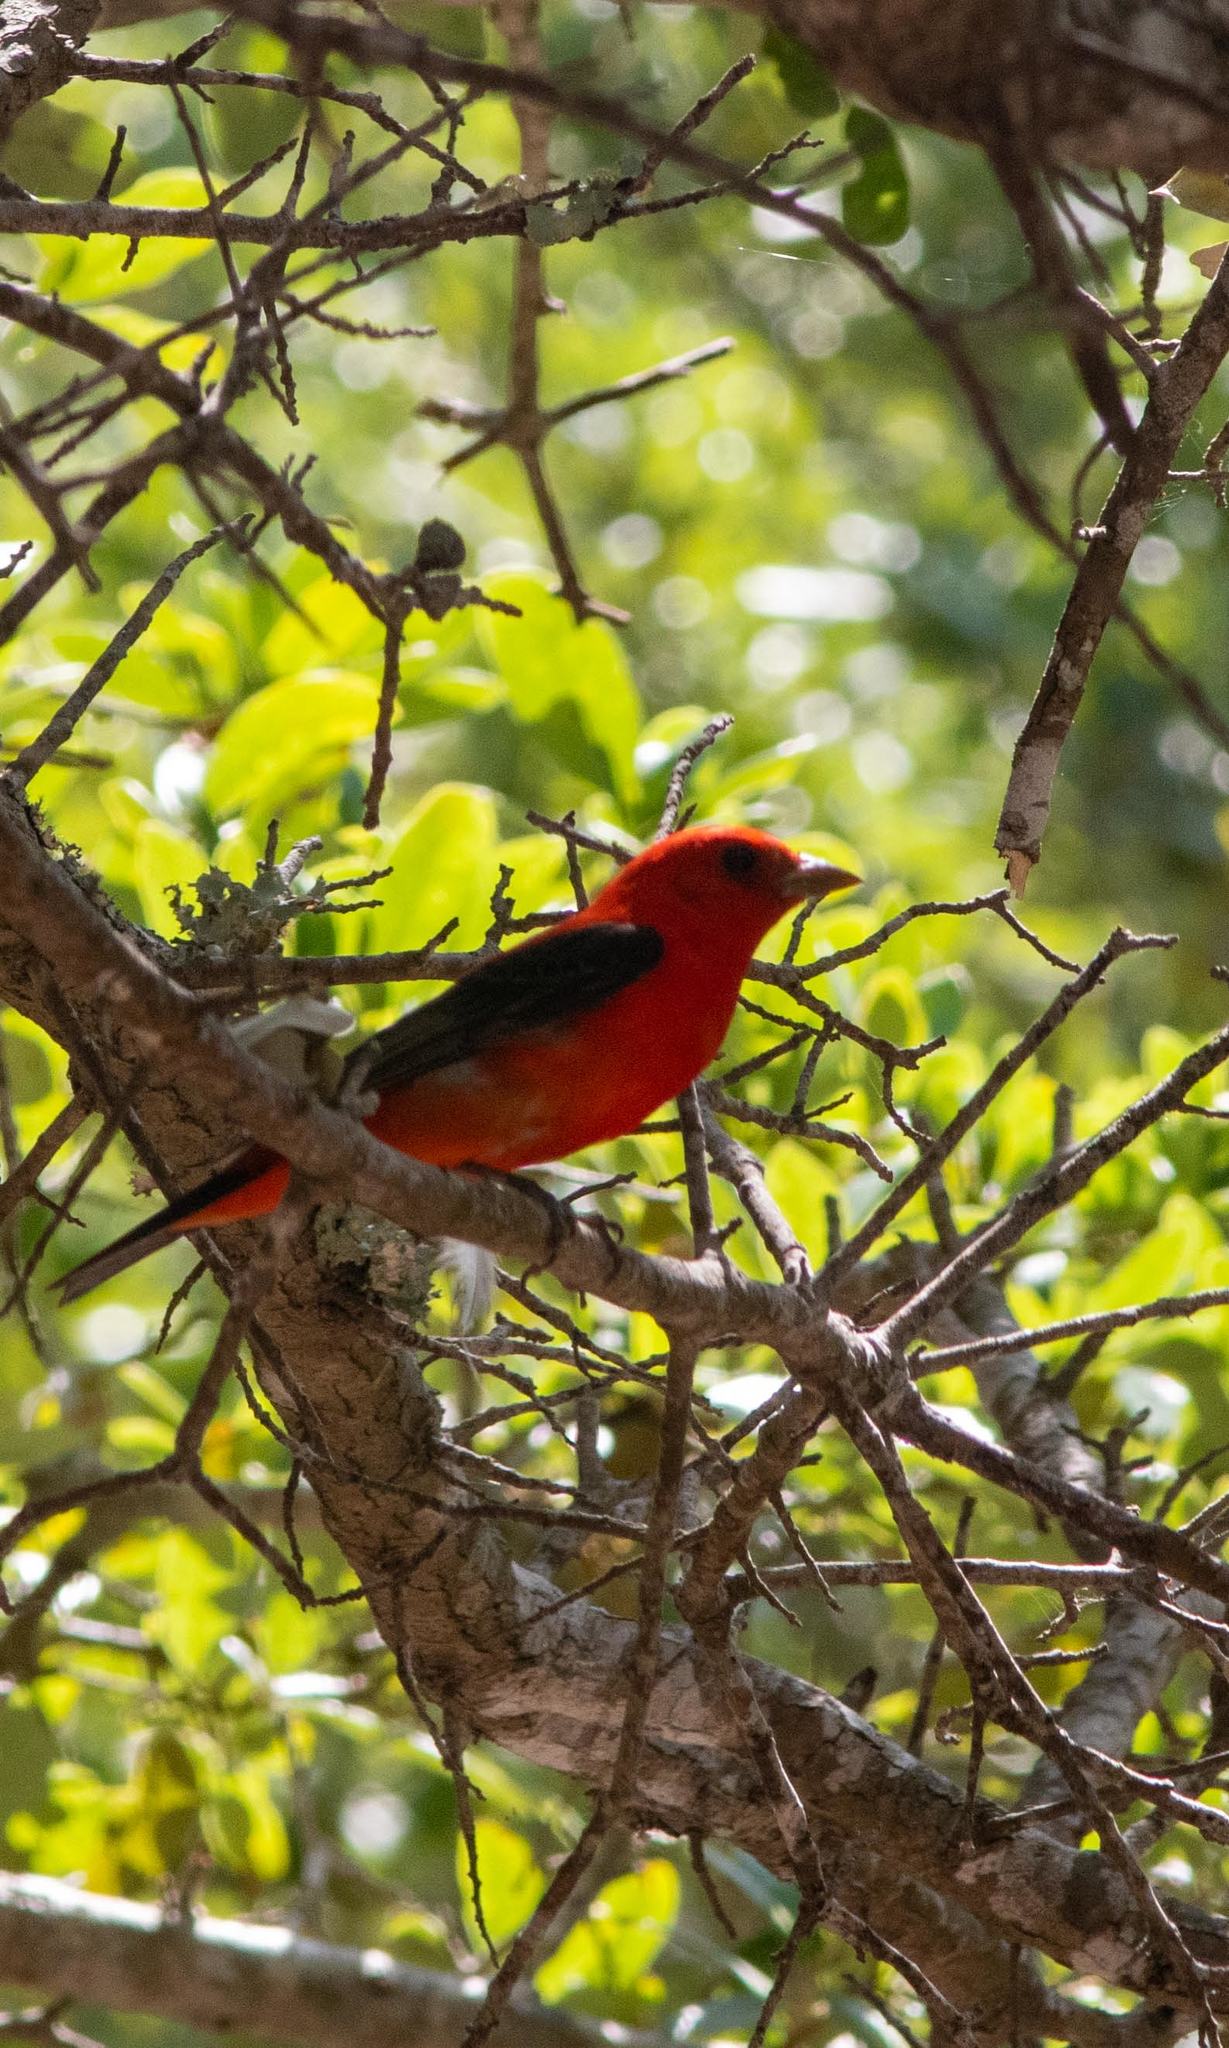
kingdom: Animalia
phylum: Chordata
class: Aves
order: Passeriformes
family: Cardinalidae
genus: Piranga
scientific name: Piranga olivacea
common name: Scarlet tanager
